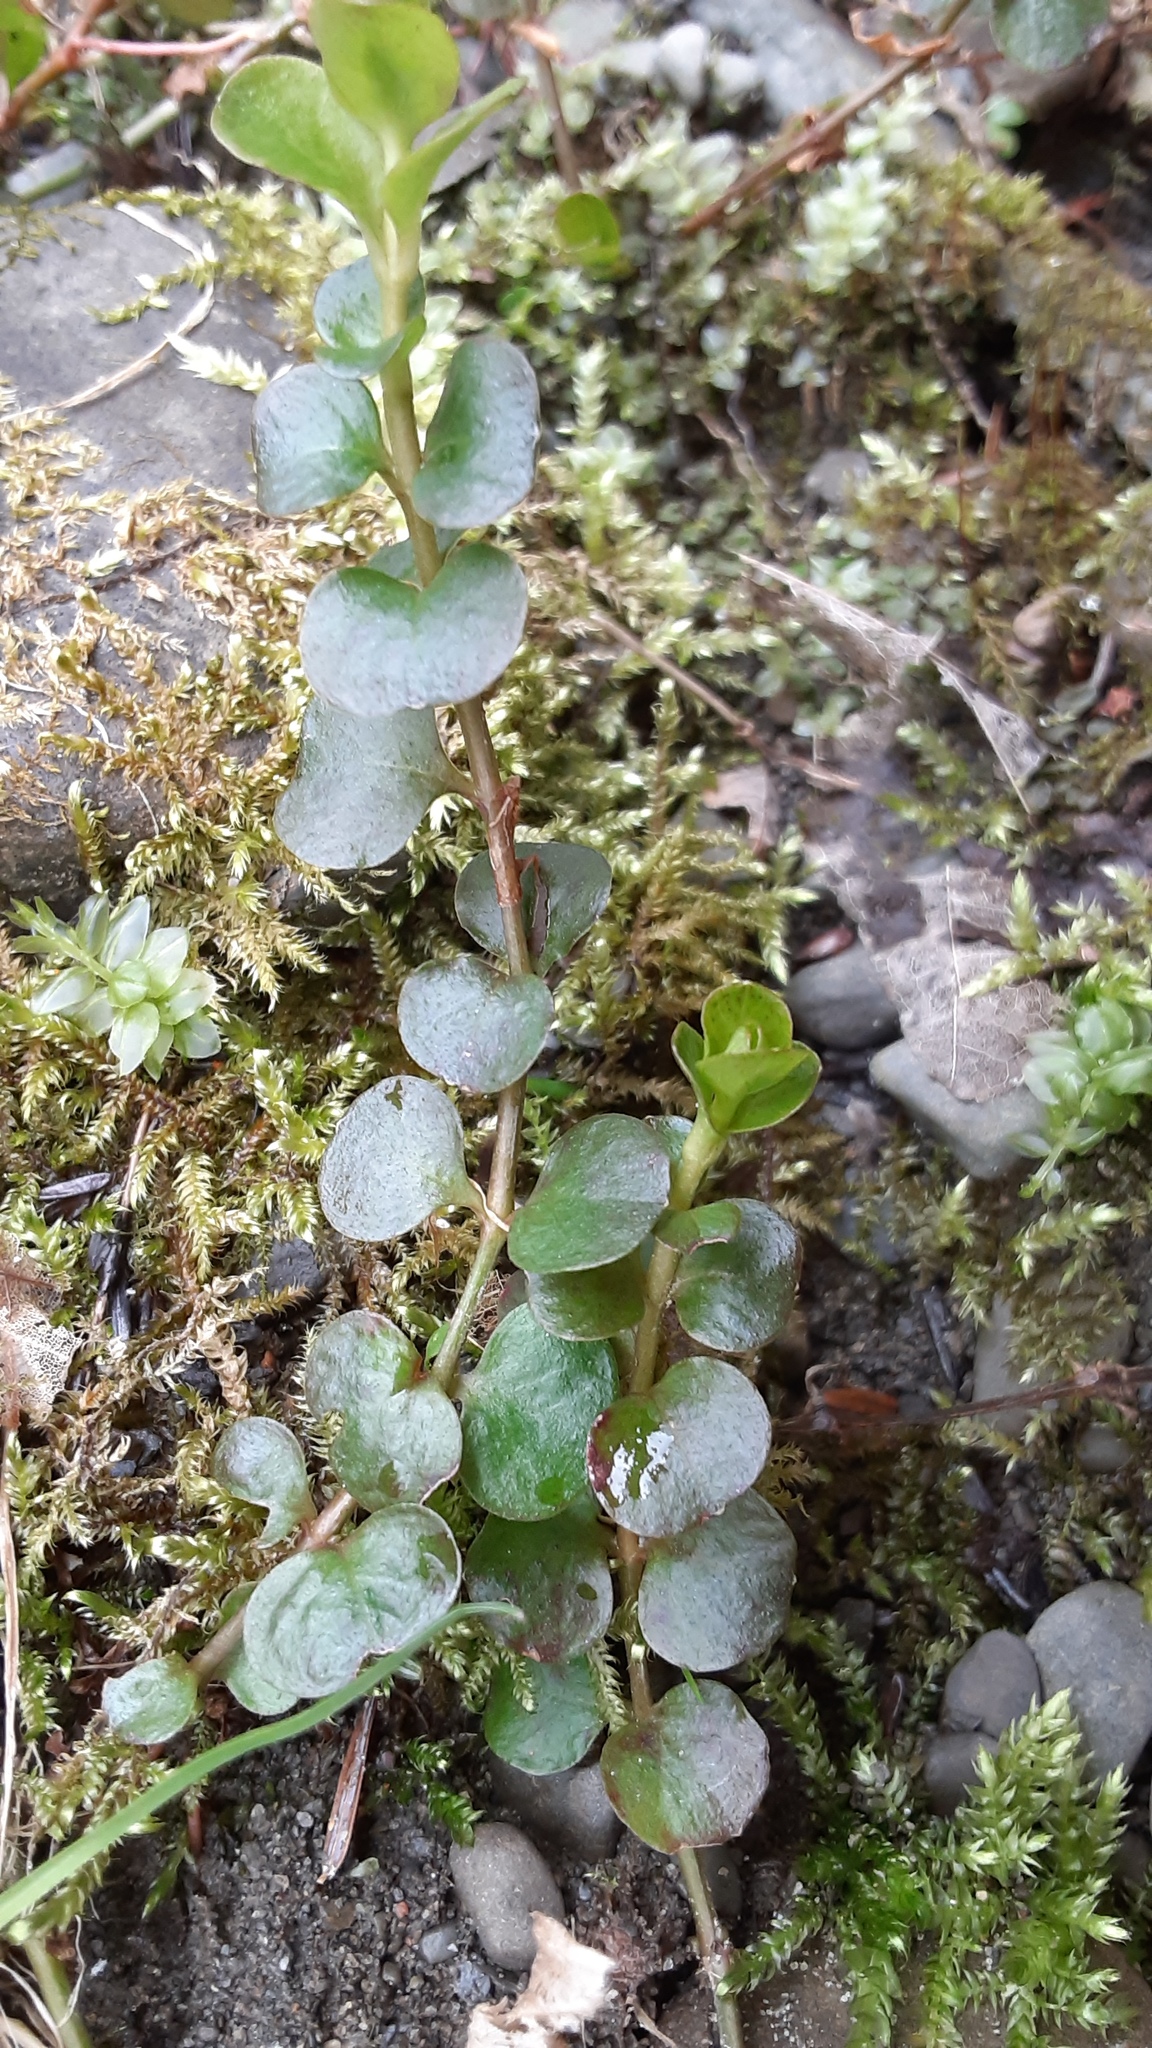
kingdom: Plantae
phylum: Tracheophyta
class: Magnoliopsida
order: Ericales
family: Primulaceae
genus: Lysimachia
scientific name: Lysimachia nummularia
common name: Moneywort
